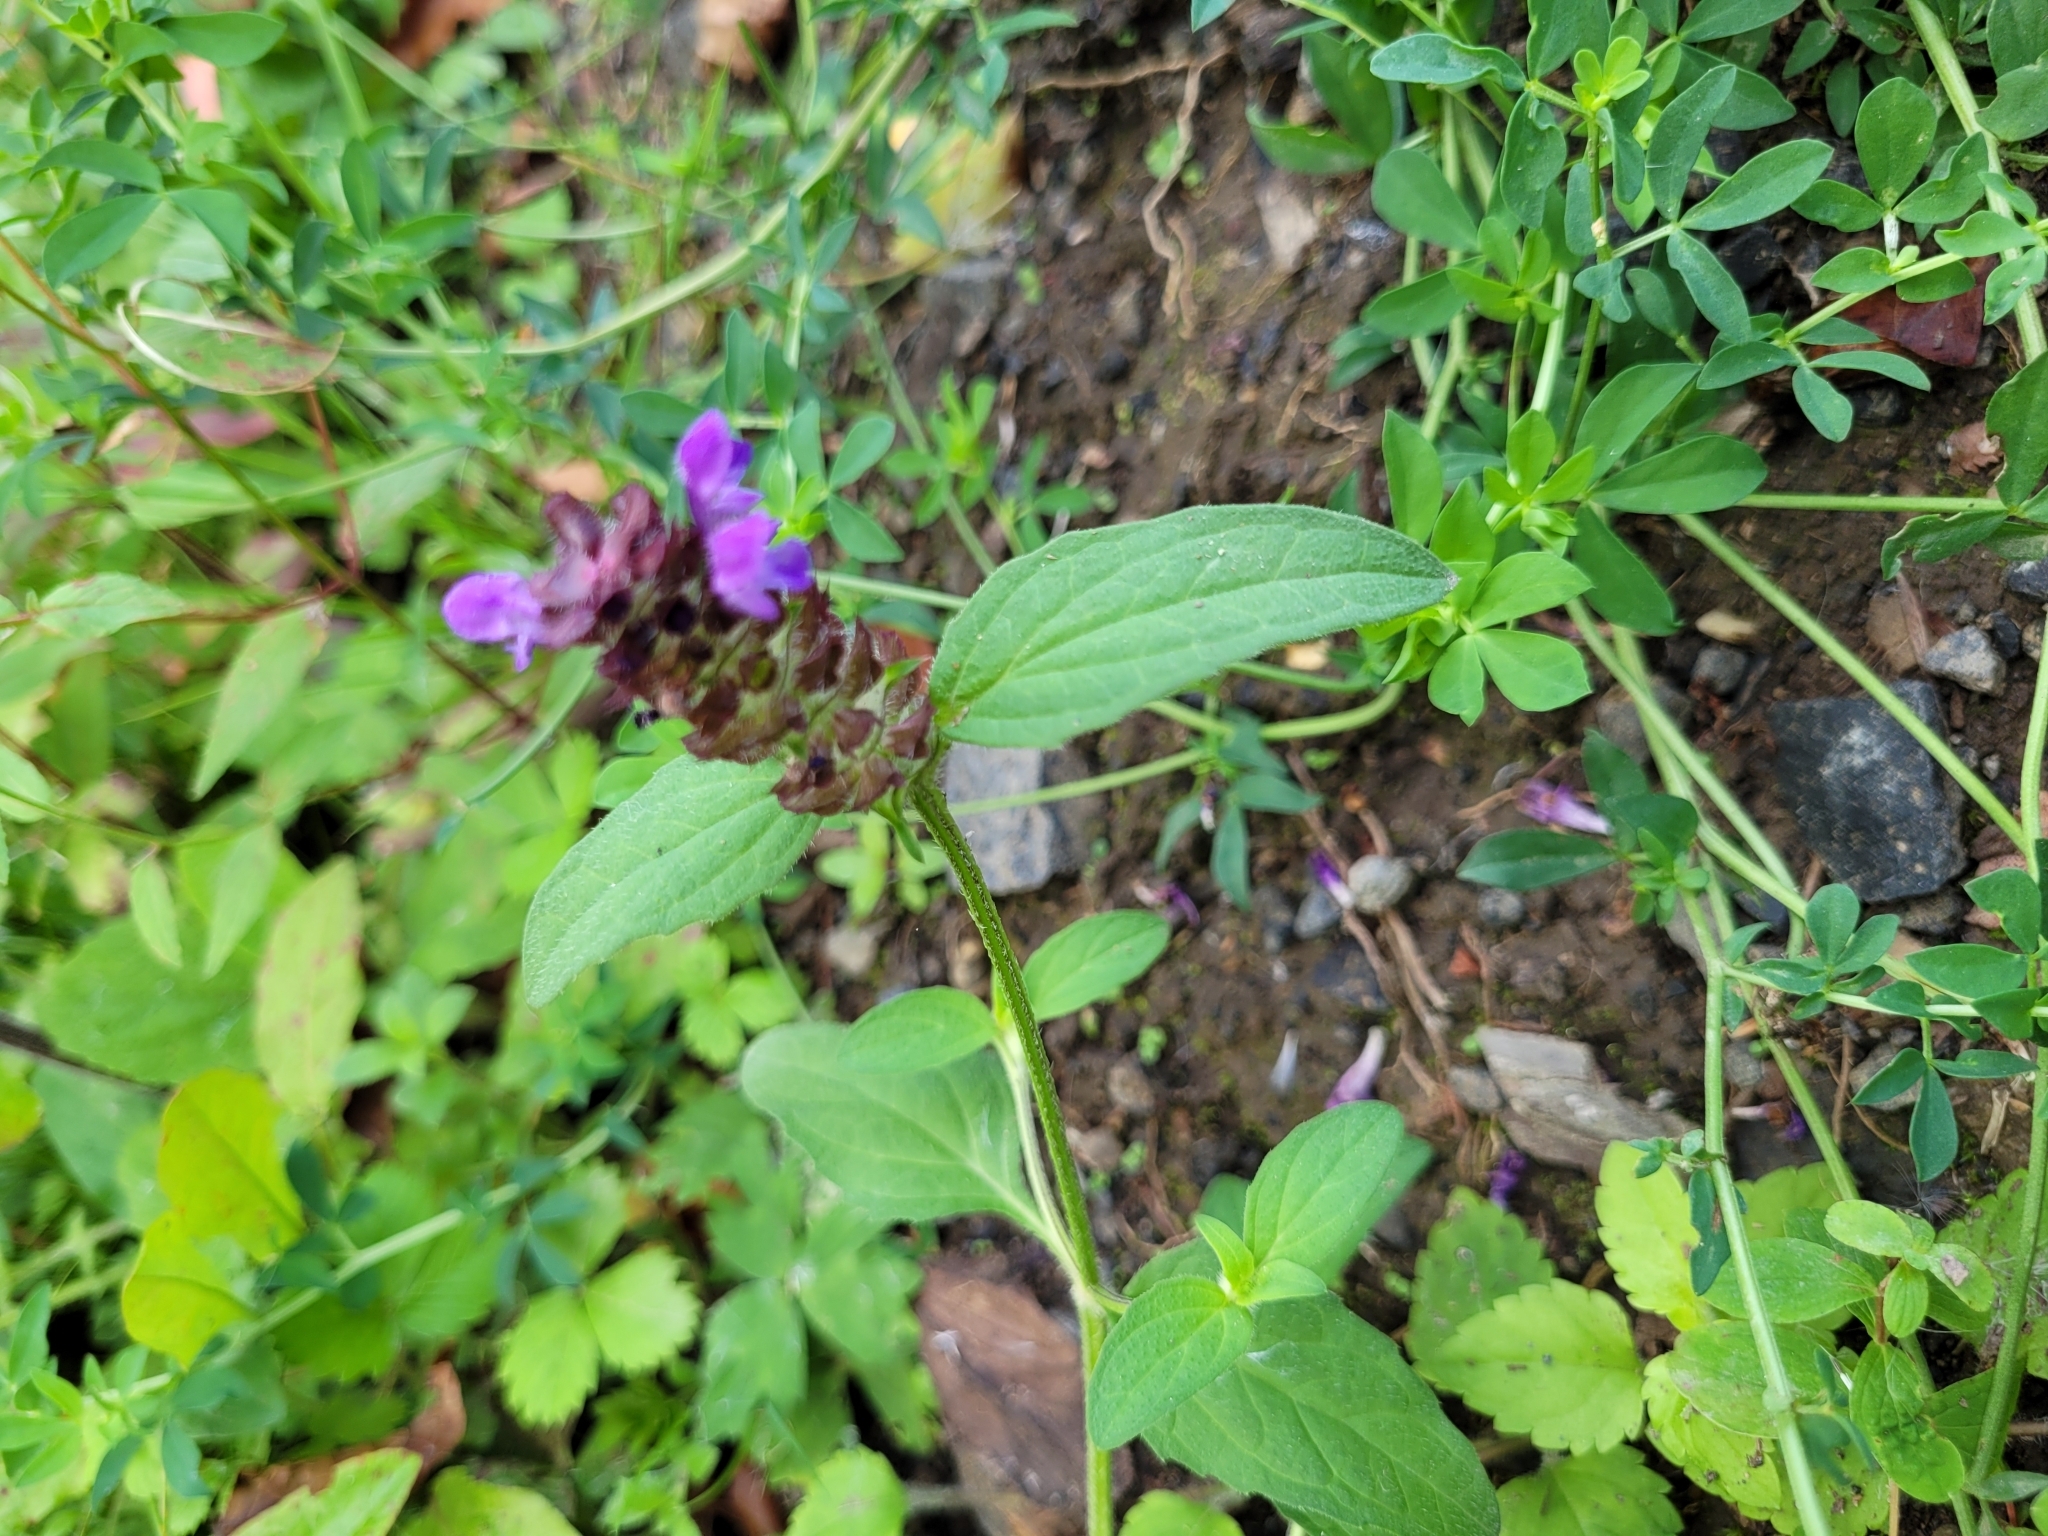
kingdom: Plantae
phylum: Tracheophyta
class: Magnoliopsida
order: Lamiales
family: Lamiaceae
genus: Prunella
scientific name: Prunella vulgaris
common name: Heal-all
